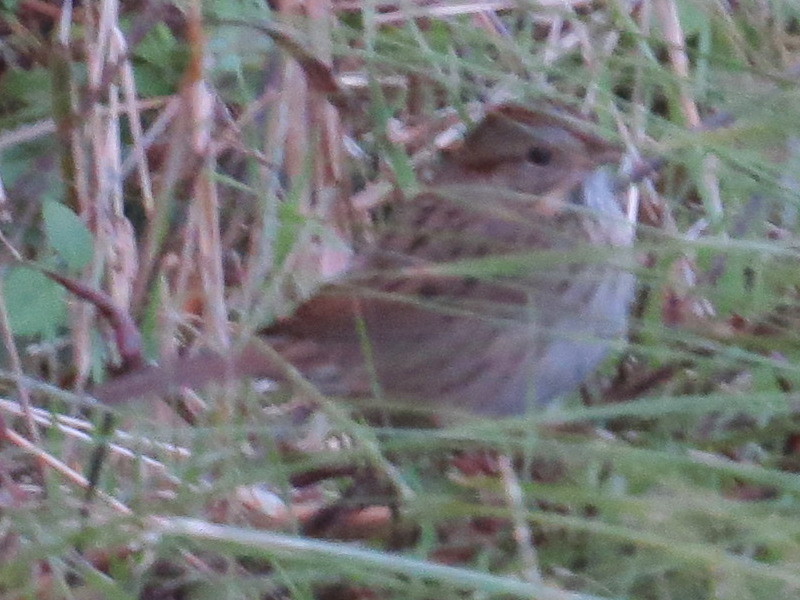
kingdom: Animalia
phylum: Chordata
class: Aves
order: Passeriformes
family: Passerellidae
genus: Melospiza
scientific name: Melospiza lincolnii
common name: Lincoln's sparrow
